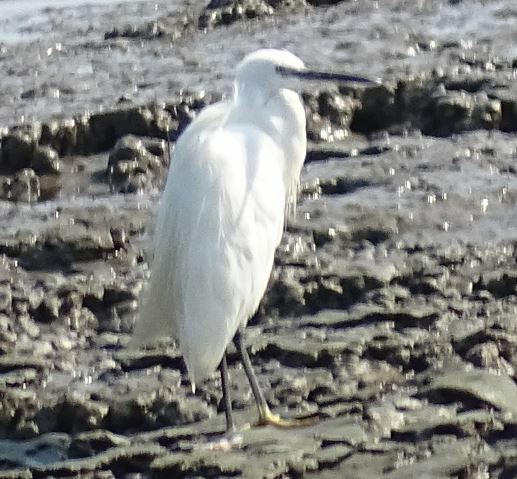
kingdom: Animalia
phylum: Chordata
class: Aves
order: Pelecaniformes
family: Ardeidae
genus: Egretta
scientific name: Egretta garzetta
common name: Little egret
